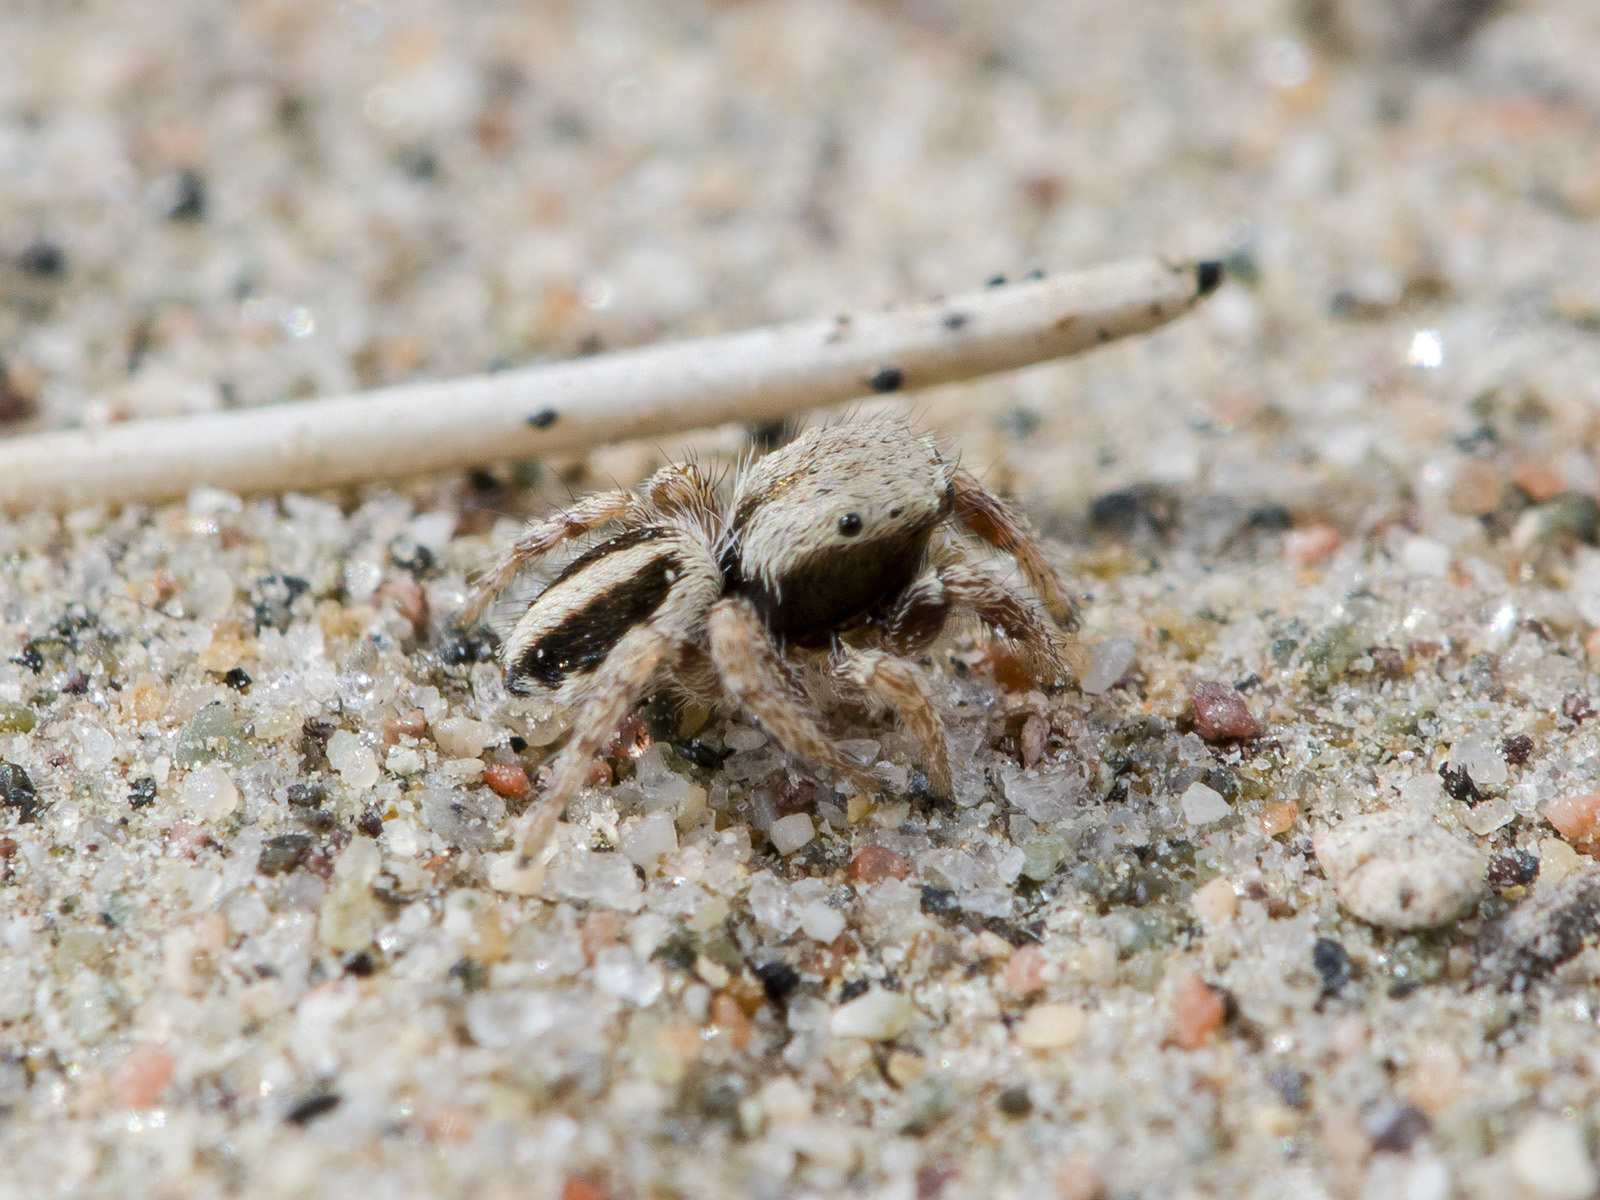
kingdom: Animalia
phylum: Arthropoda
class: Arachnida
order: Araneae
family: Salticidae
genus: Pellenes
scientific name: Pellenes epularis
